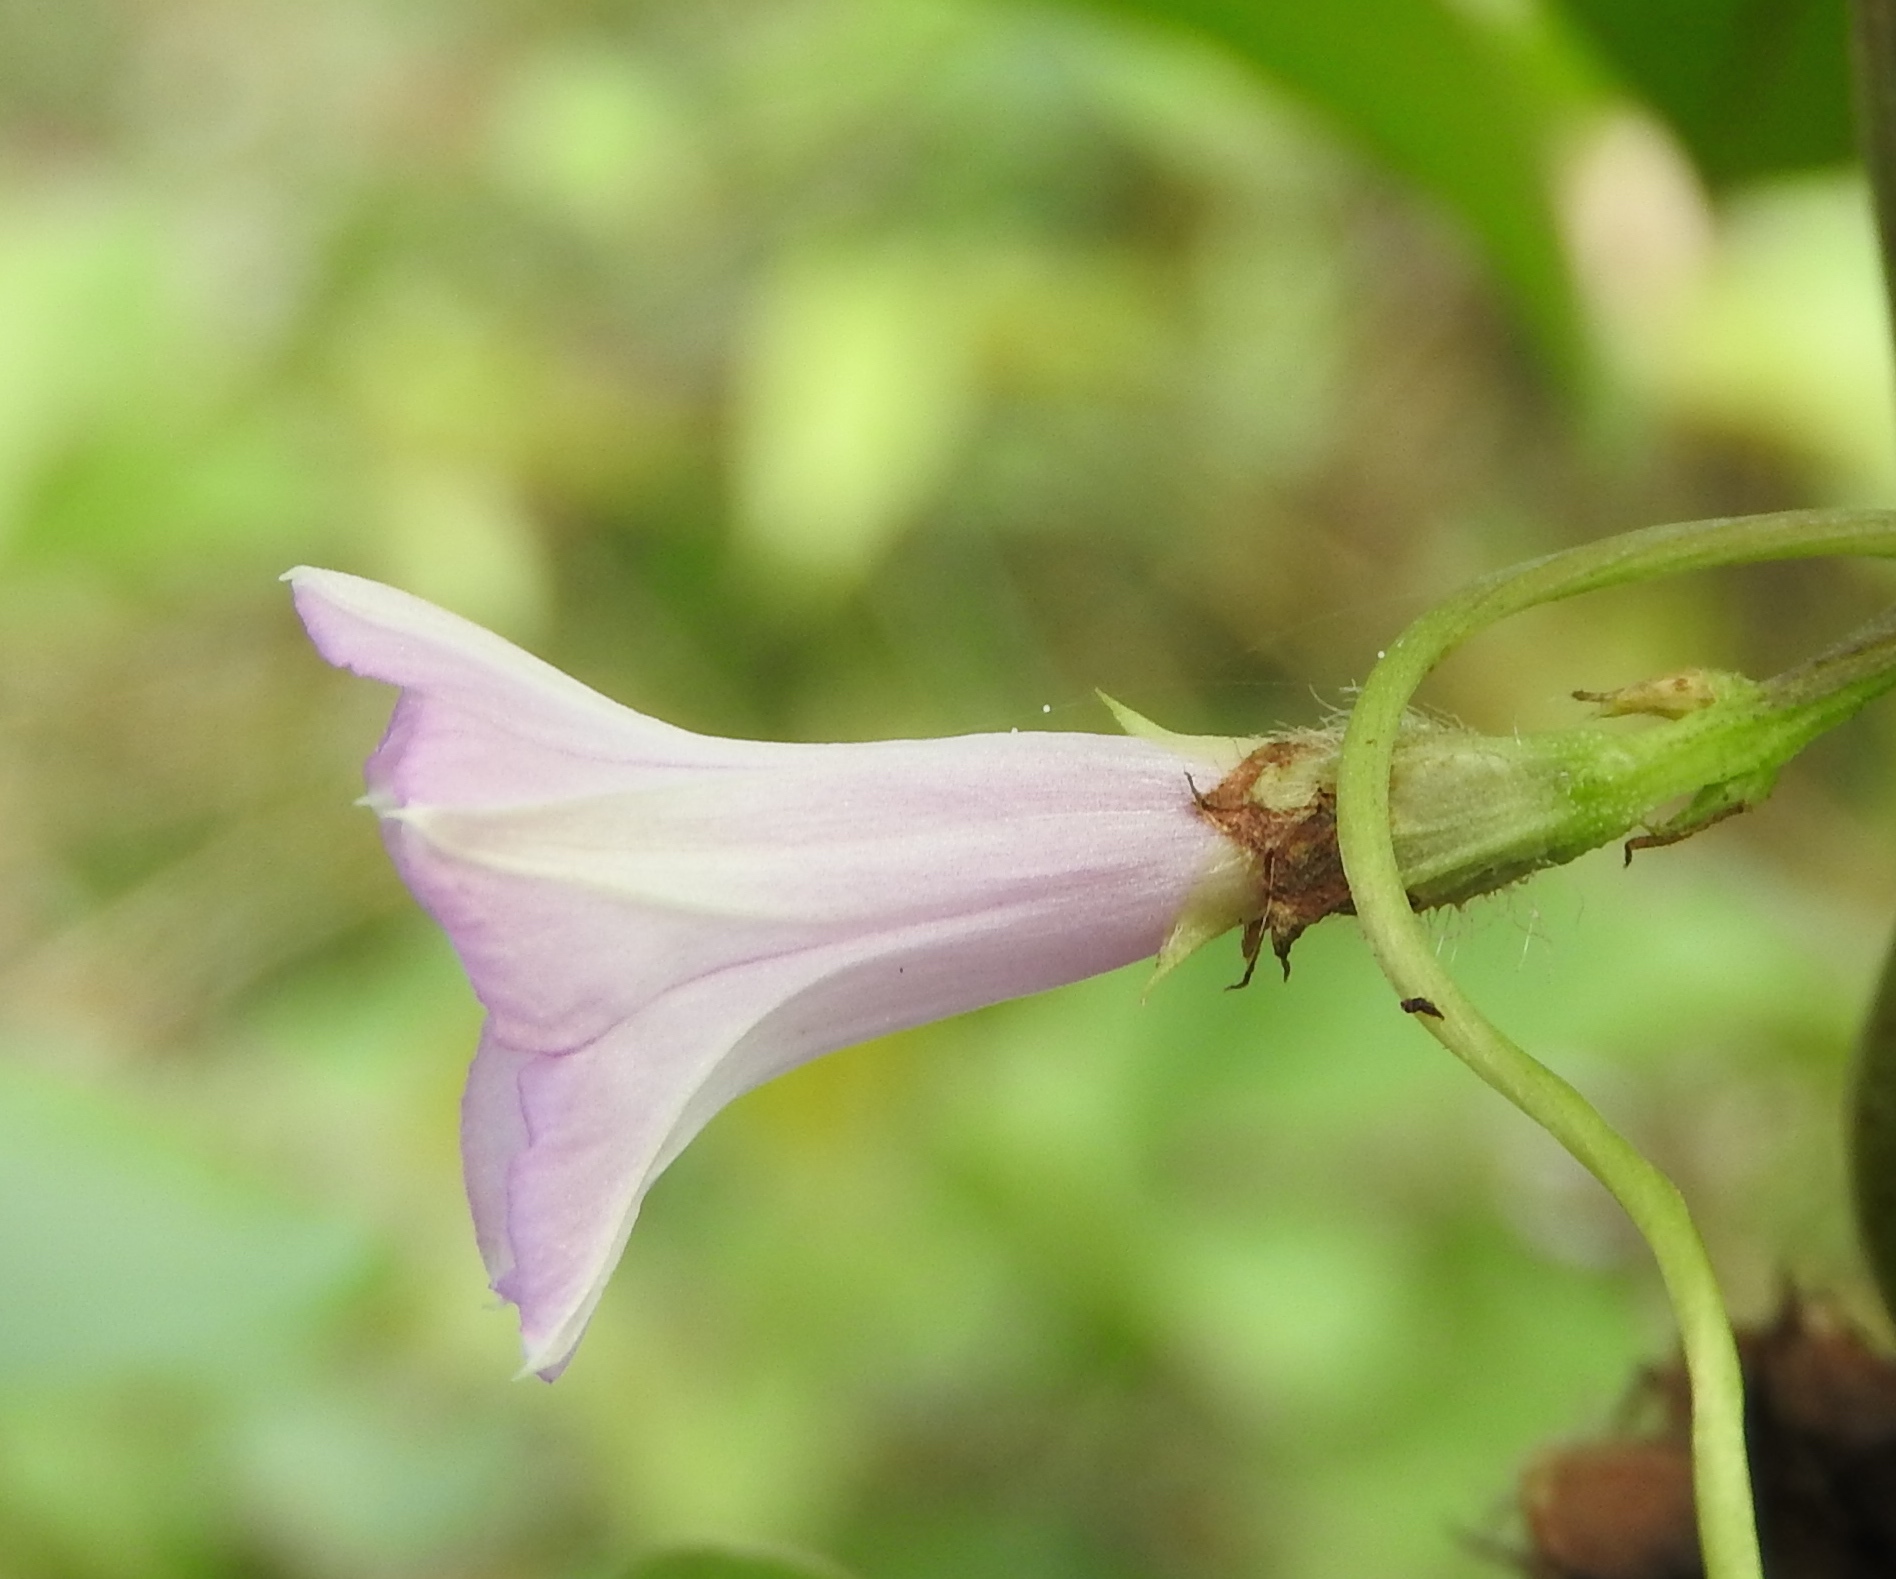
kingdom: Plantae
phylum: Tracheophyta
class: Magnoliopsida
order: Solanales
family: Convolvulaceae
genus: Ipomoea
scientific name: Ipomoea triloba
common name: Little-bell
